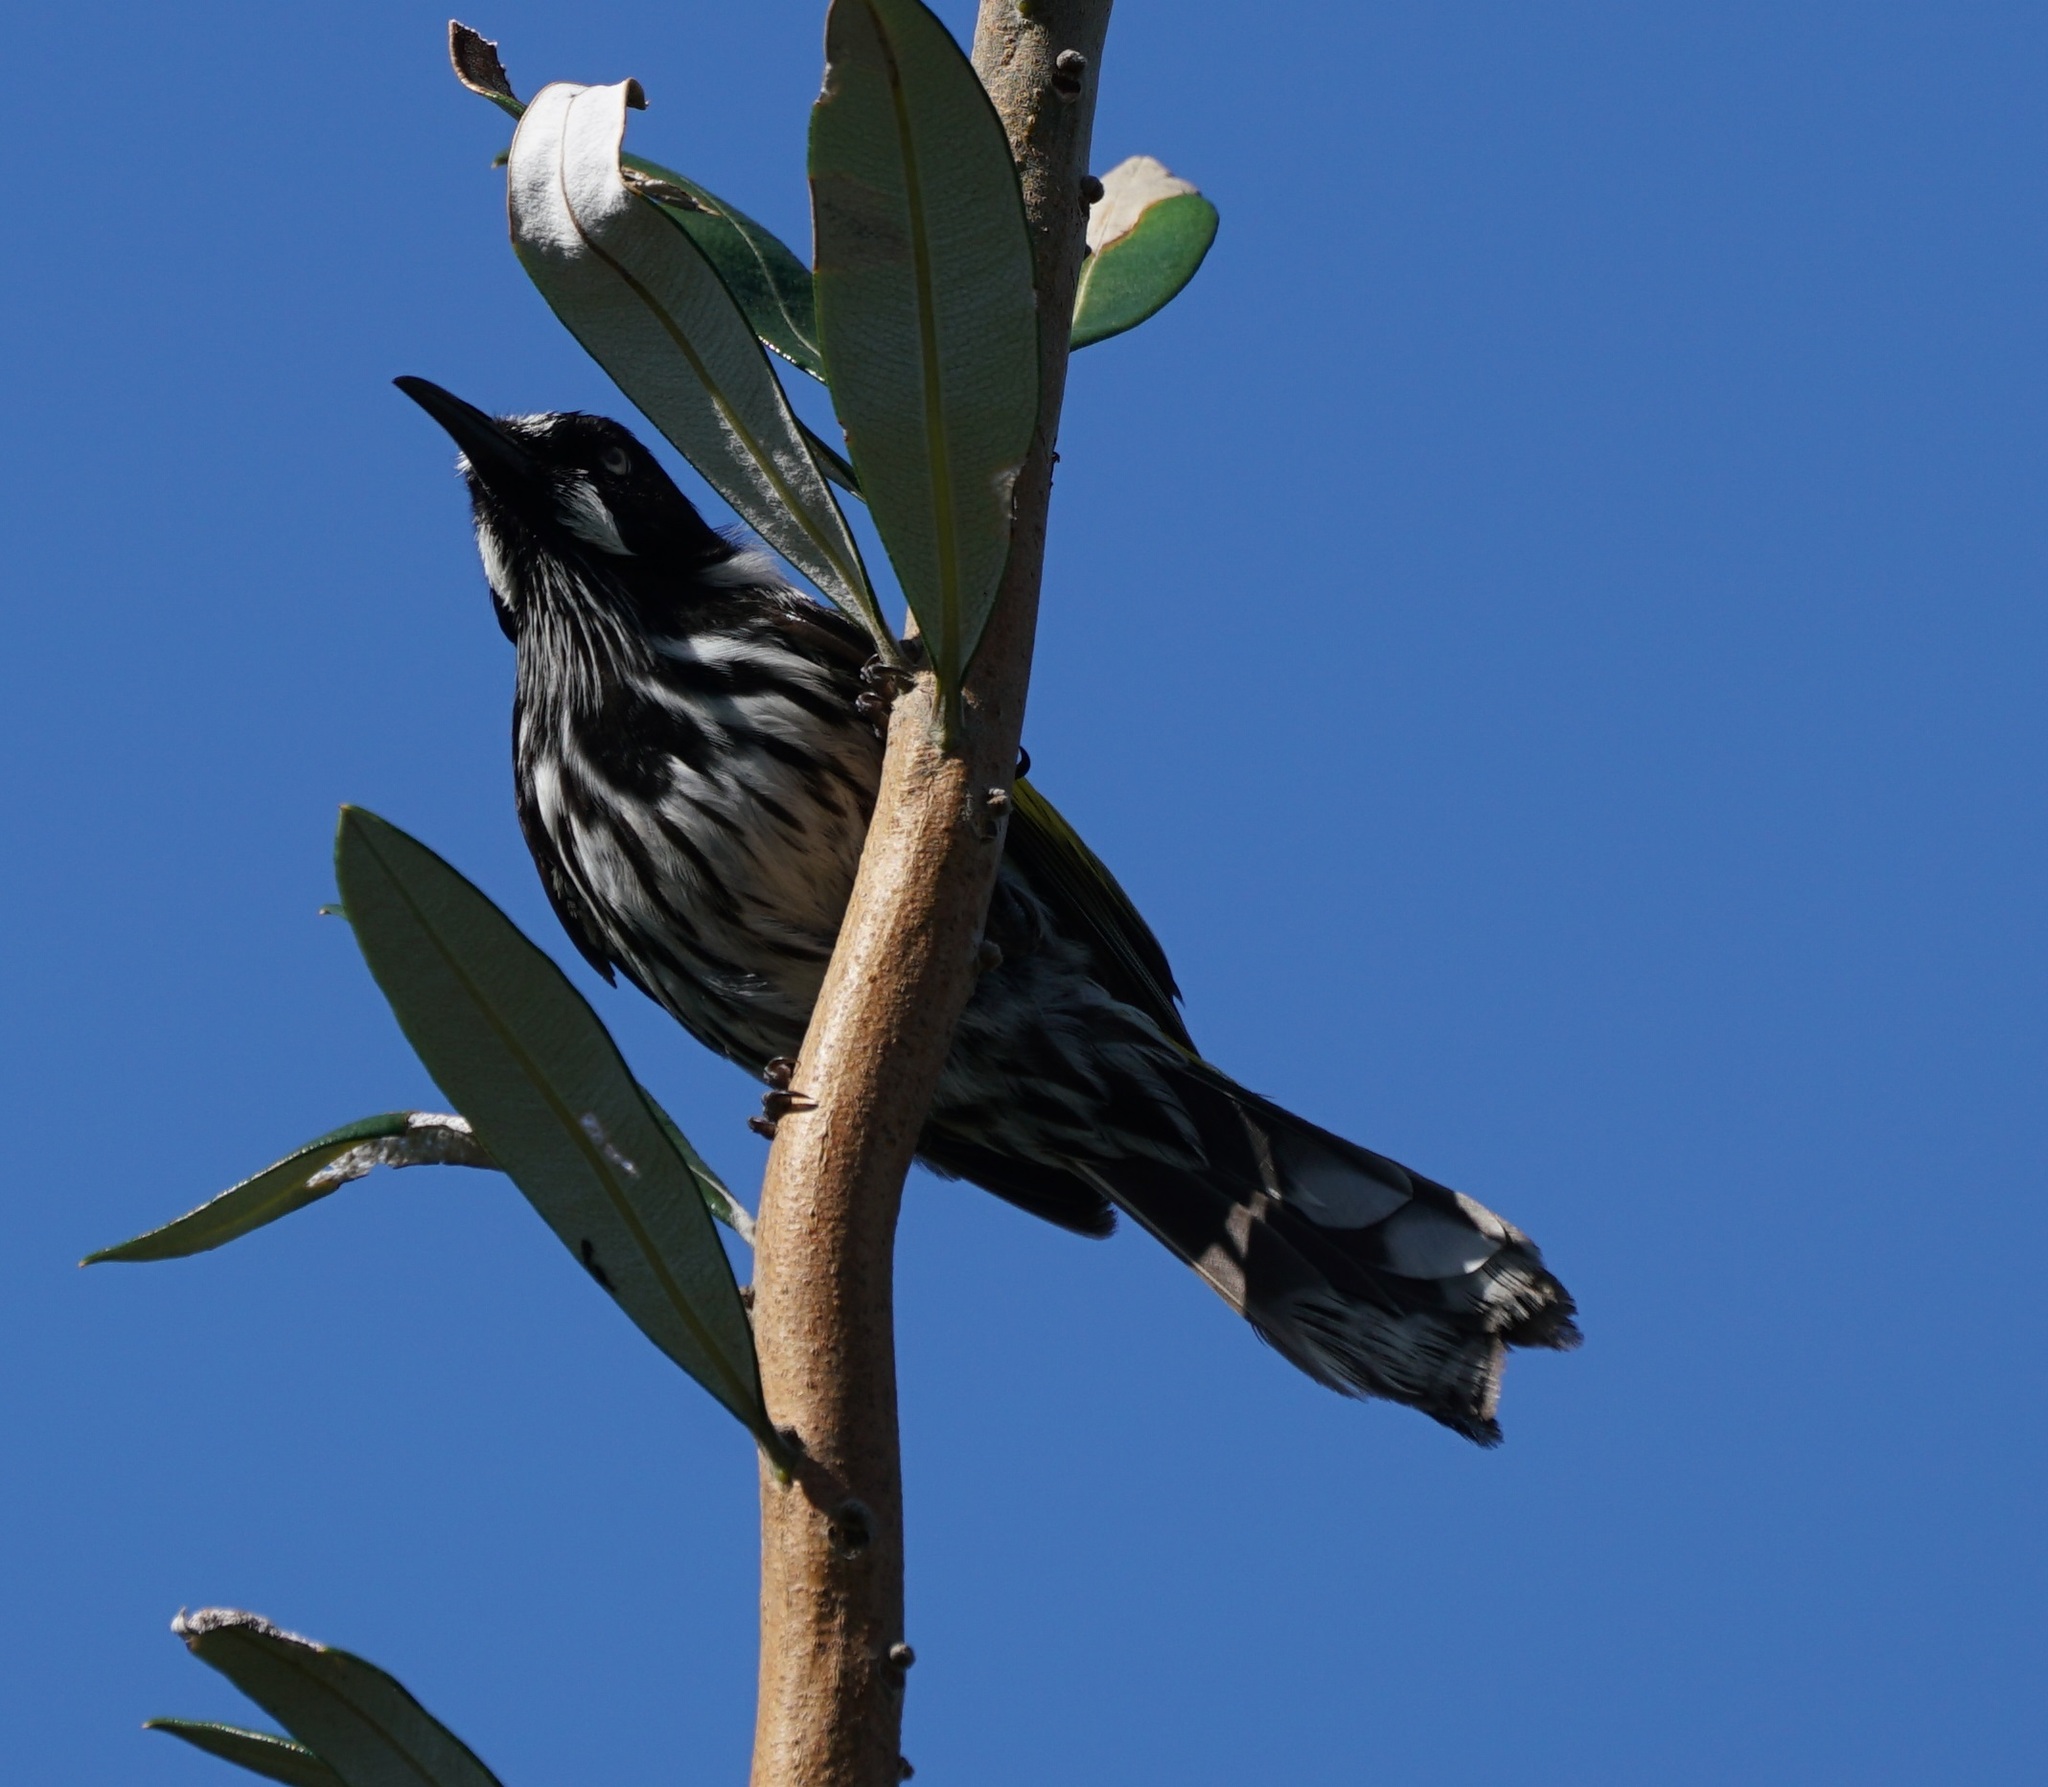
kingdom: Animalia
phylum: Chordata
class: Aves
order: Passeriformes
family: Meliphagidae
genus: Phylidonyris
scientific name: Phylidonyris novaehollandiae
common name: New holland honeyeater
